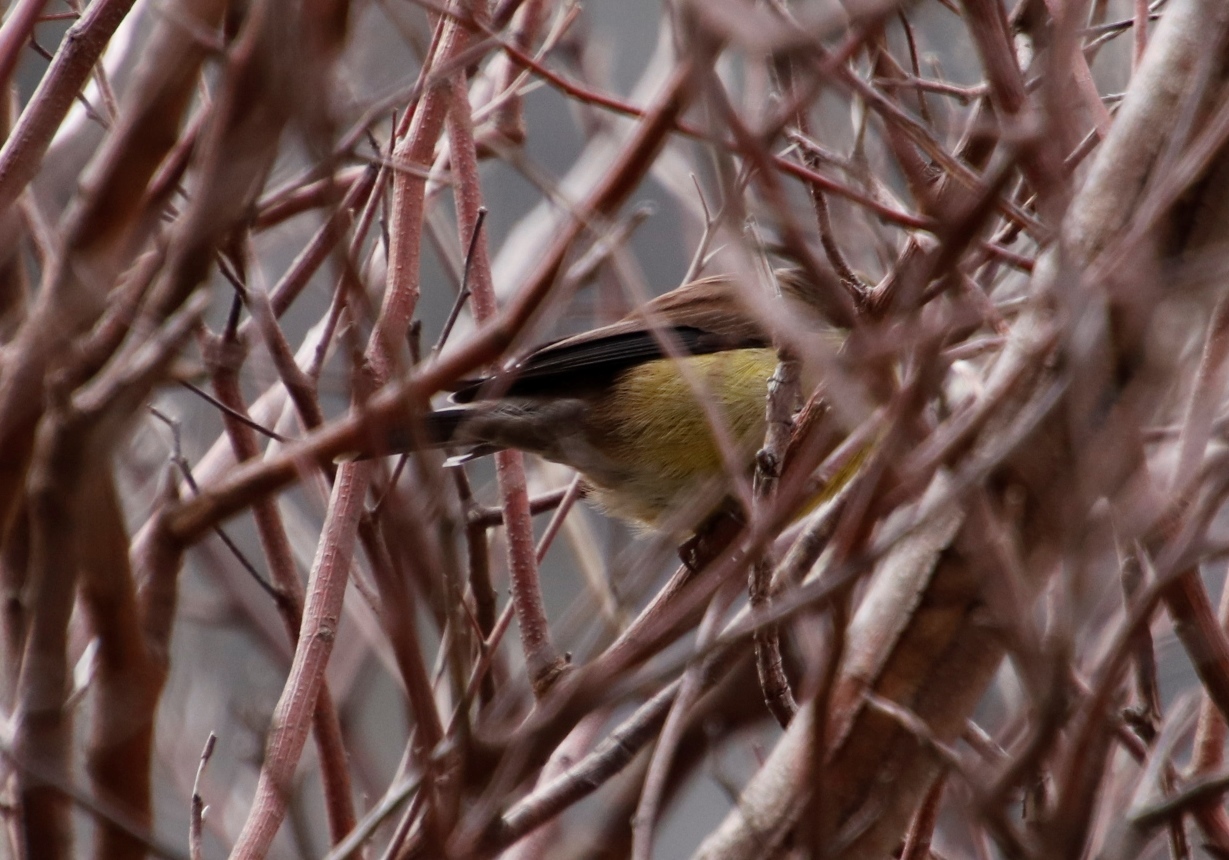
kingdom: Animalia
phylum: Chordata
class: Aves
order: Passeriformes
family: Fringillidae
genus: Crithagra
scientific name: Crithagra totta
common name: Cape siskin
